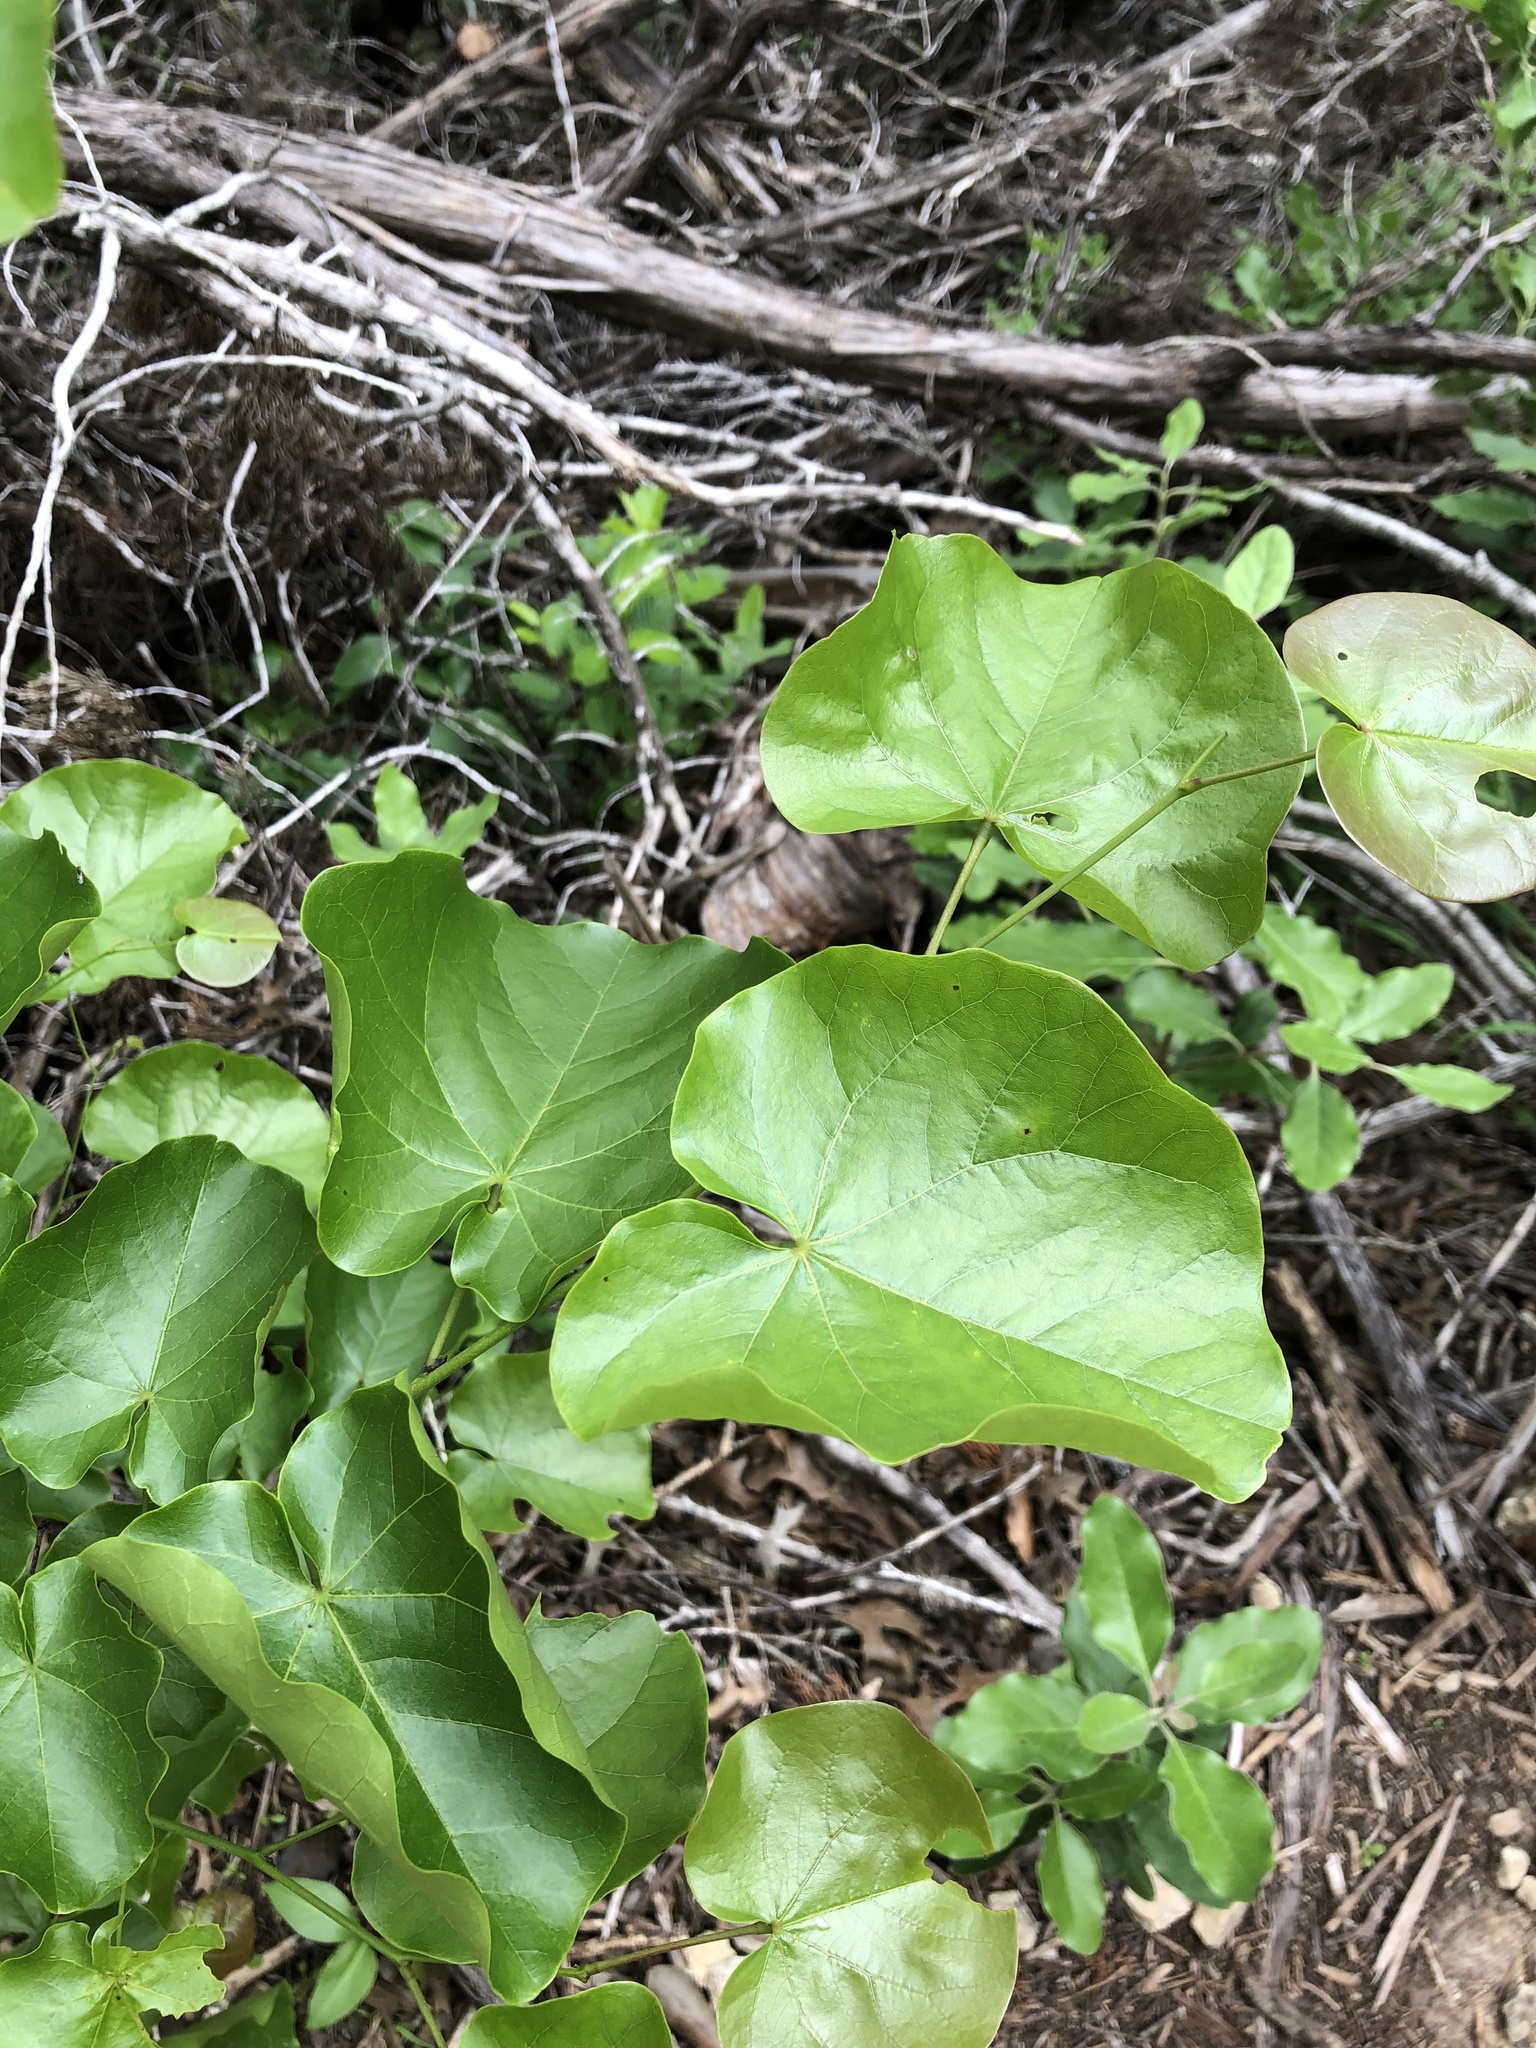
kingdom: Plantae
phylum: Tracheophyta
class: Magnoliopsida
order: Fabales
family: Fabaceae
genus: Cercis
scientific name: Cercis canadensis
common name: Eastern redbud
